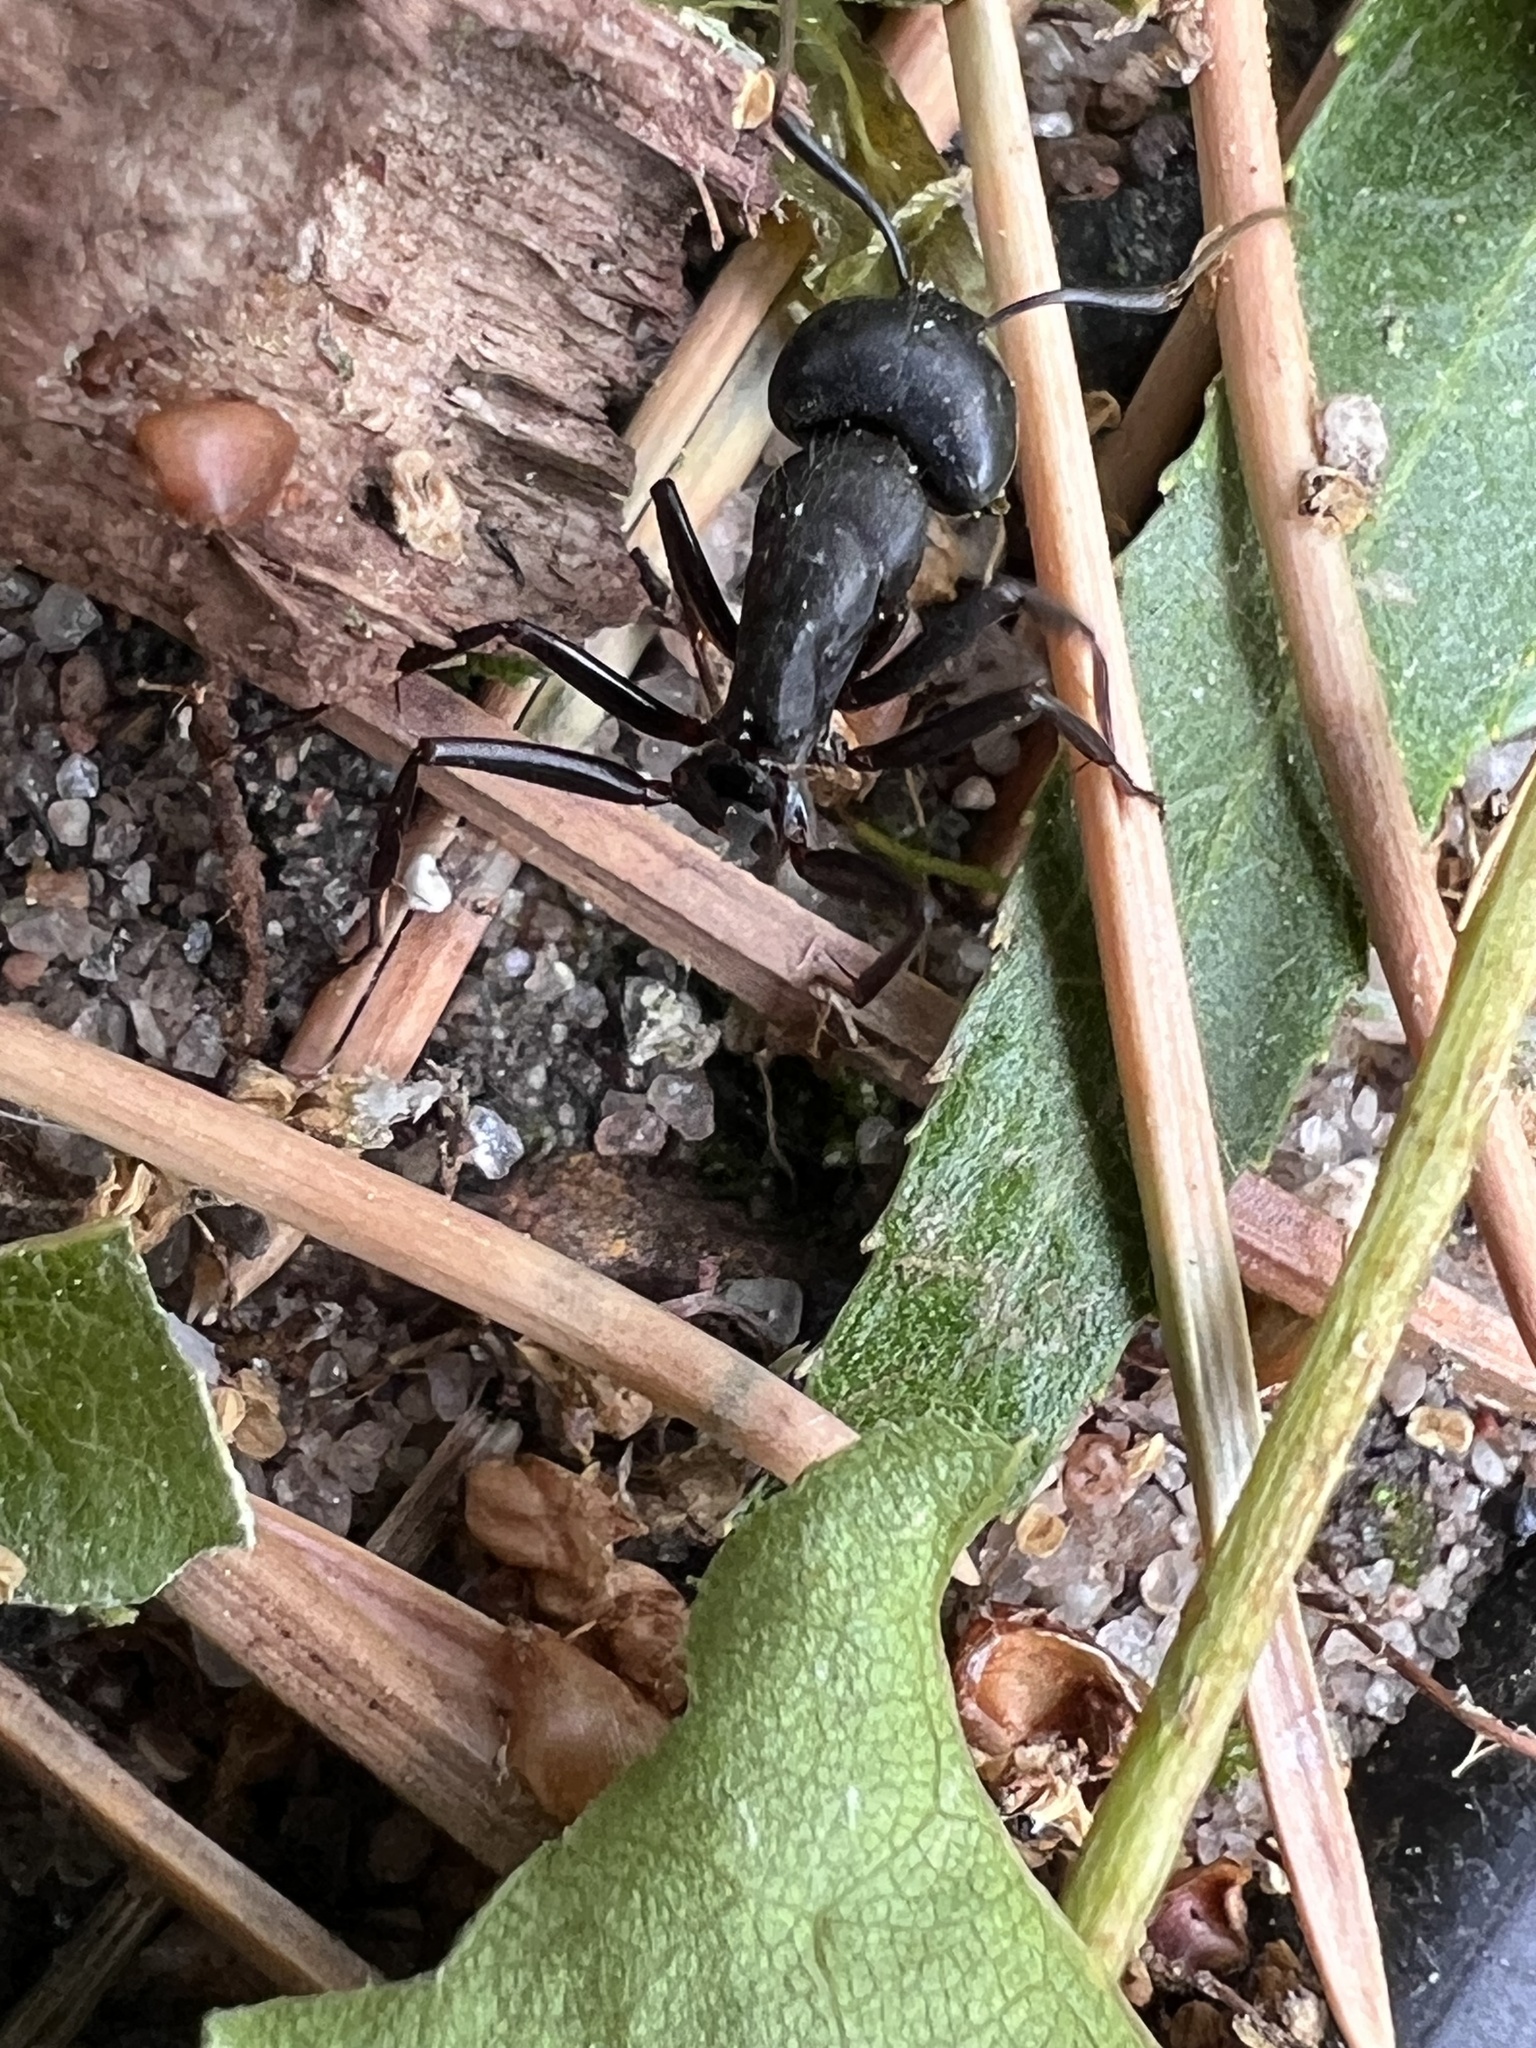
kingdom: Animalia
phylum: Arthropoda
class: Insecta
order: Hymenoptera
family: Formicidae
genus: Camponotus
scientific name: Camponotus
